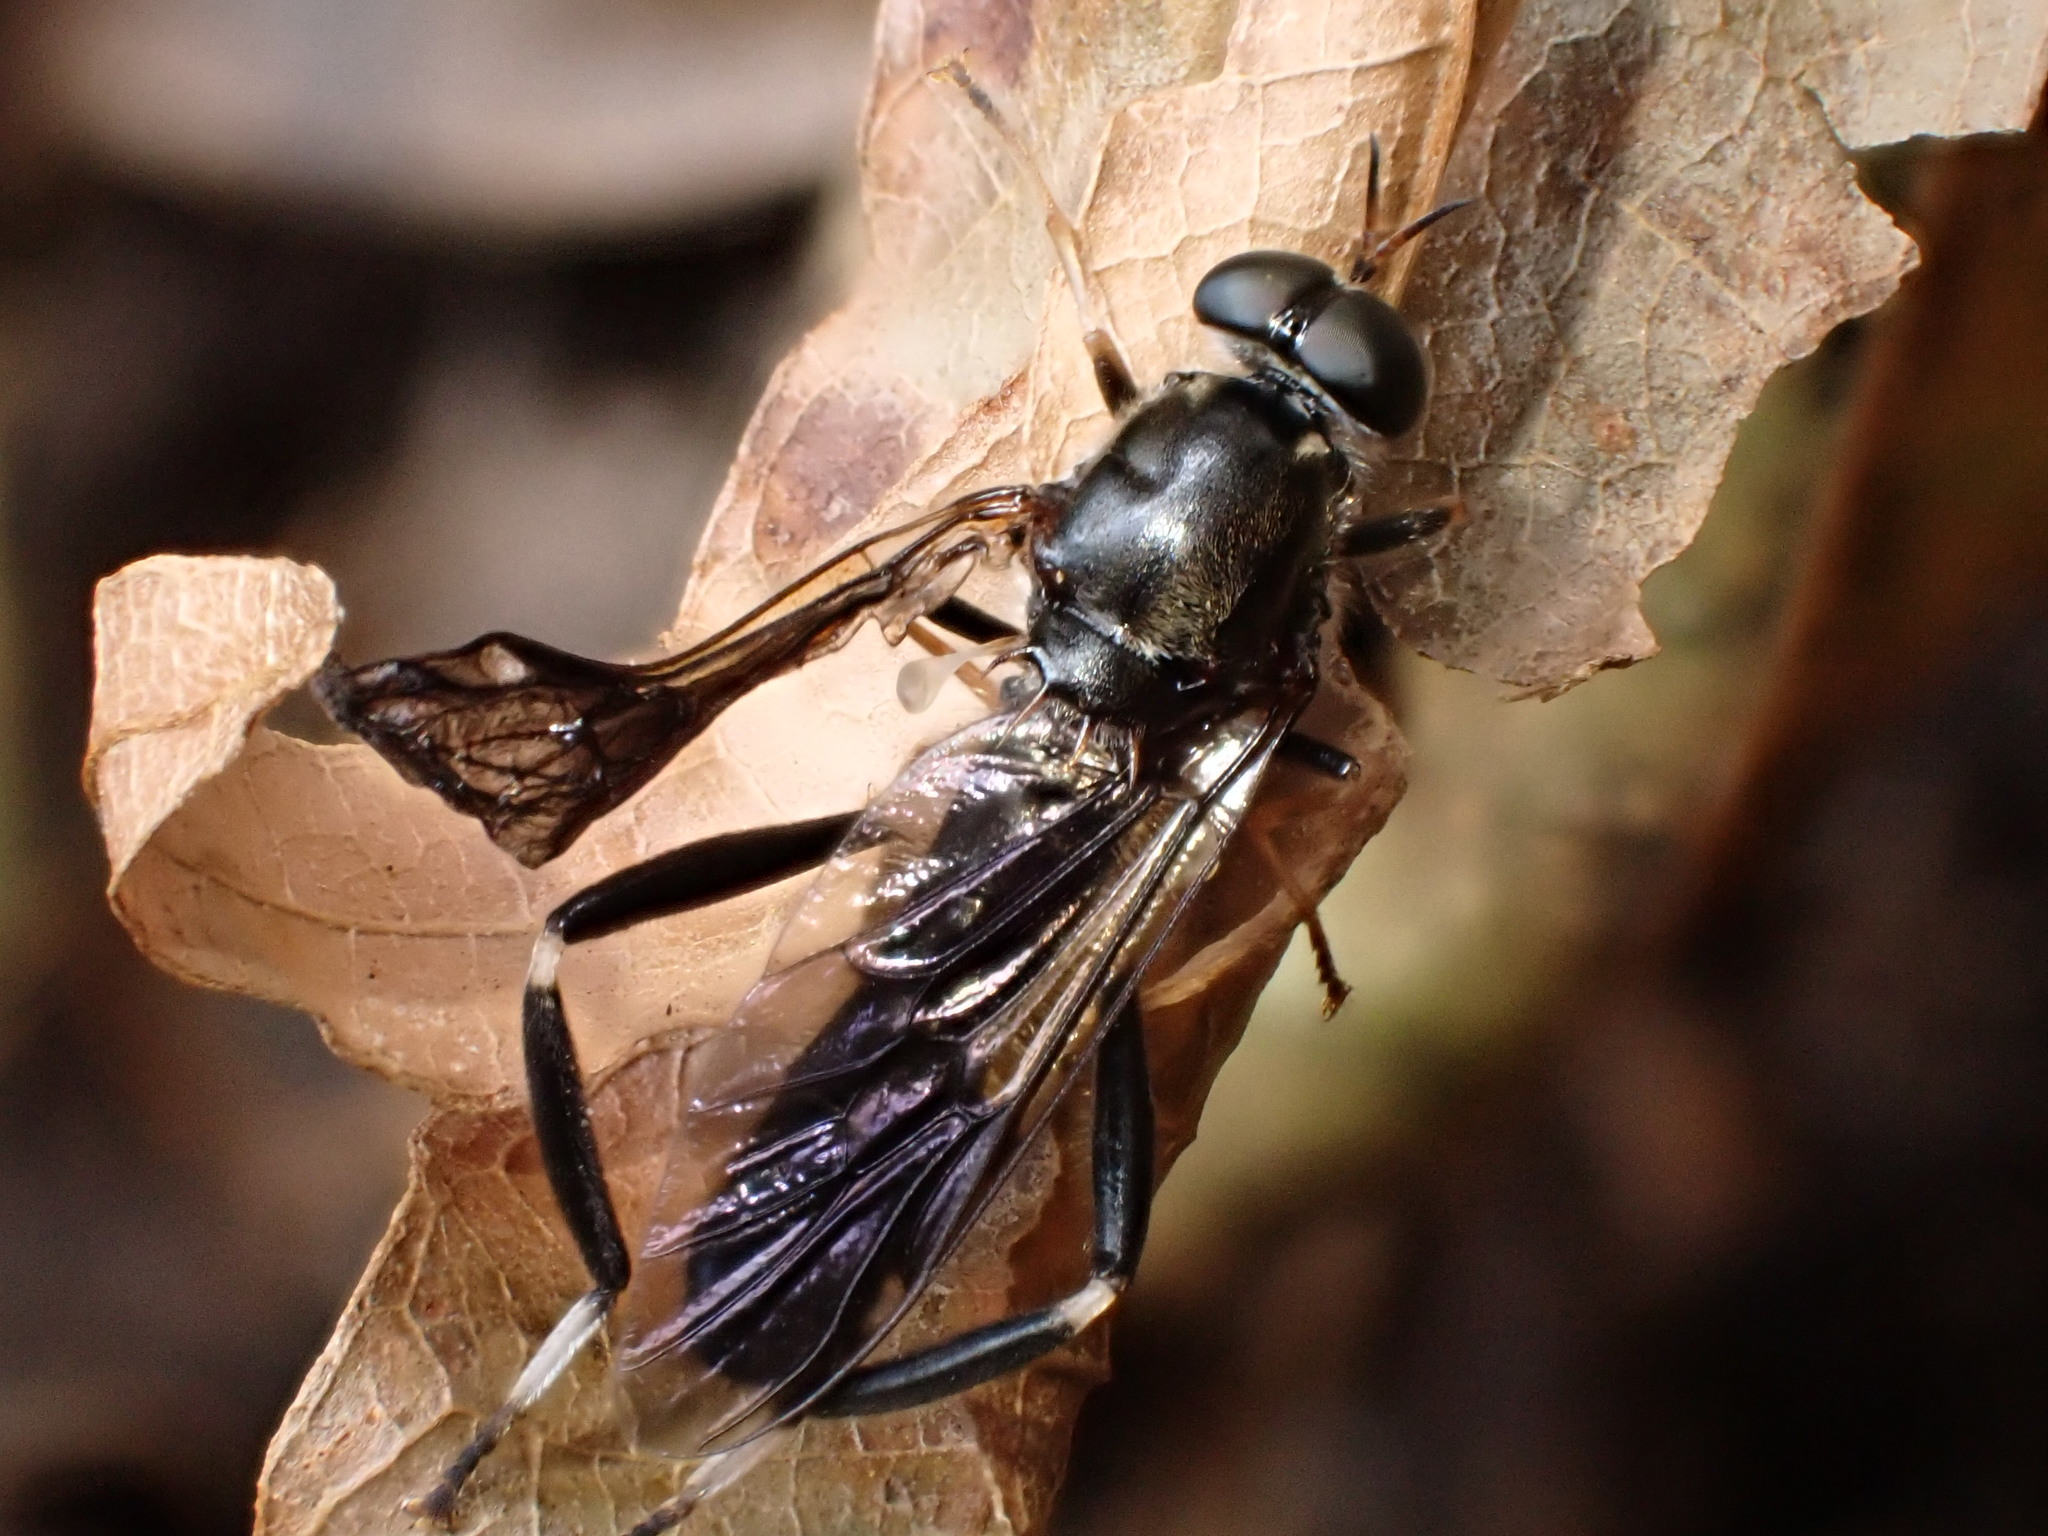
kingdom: Animalia
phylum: Arthropoda
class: Insecta
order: Diptera
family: Stratiomyidae
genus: Exaireta
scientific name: Exaireta spinigera
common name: Blue soldier fly
